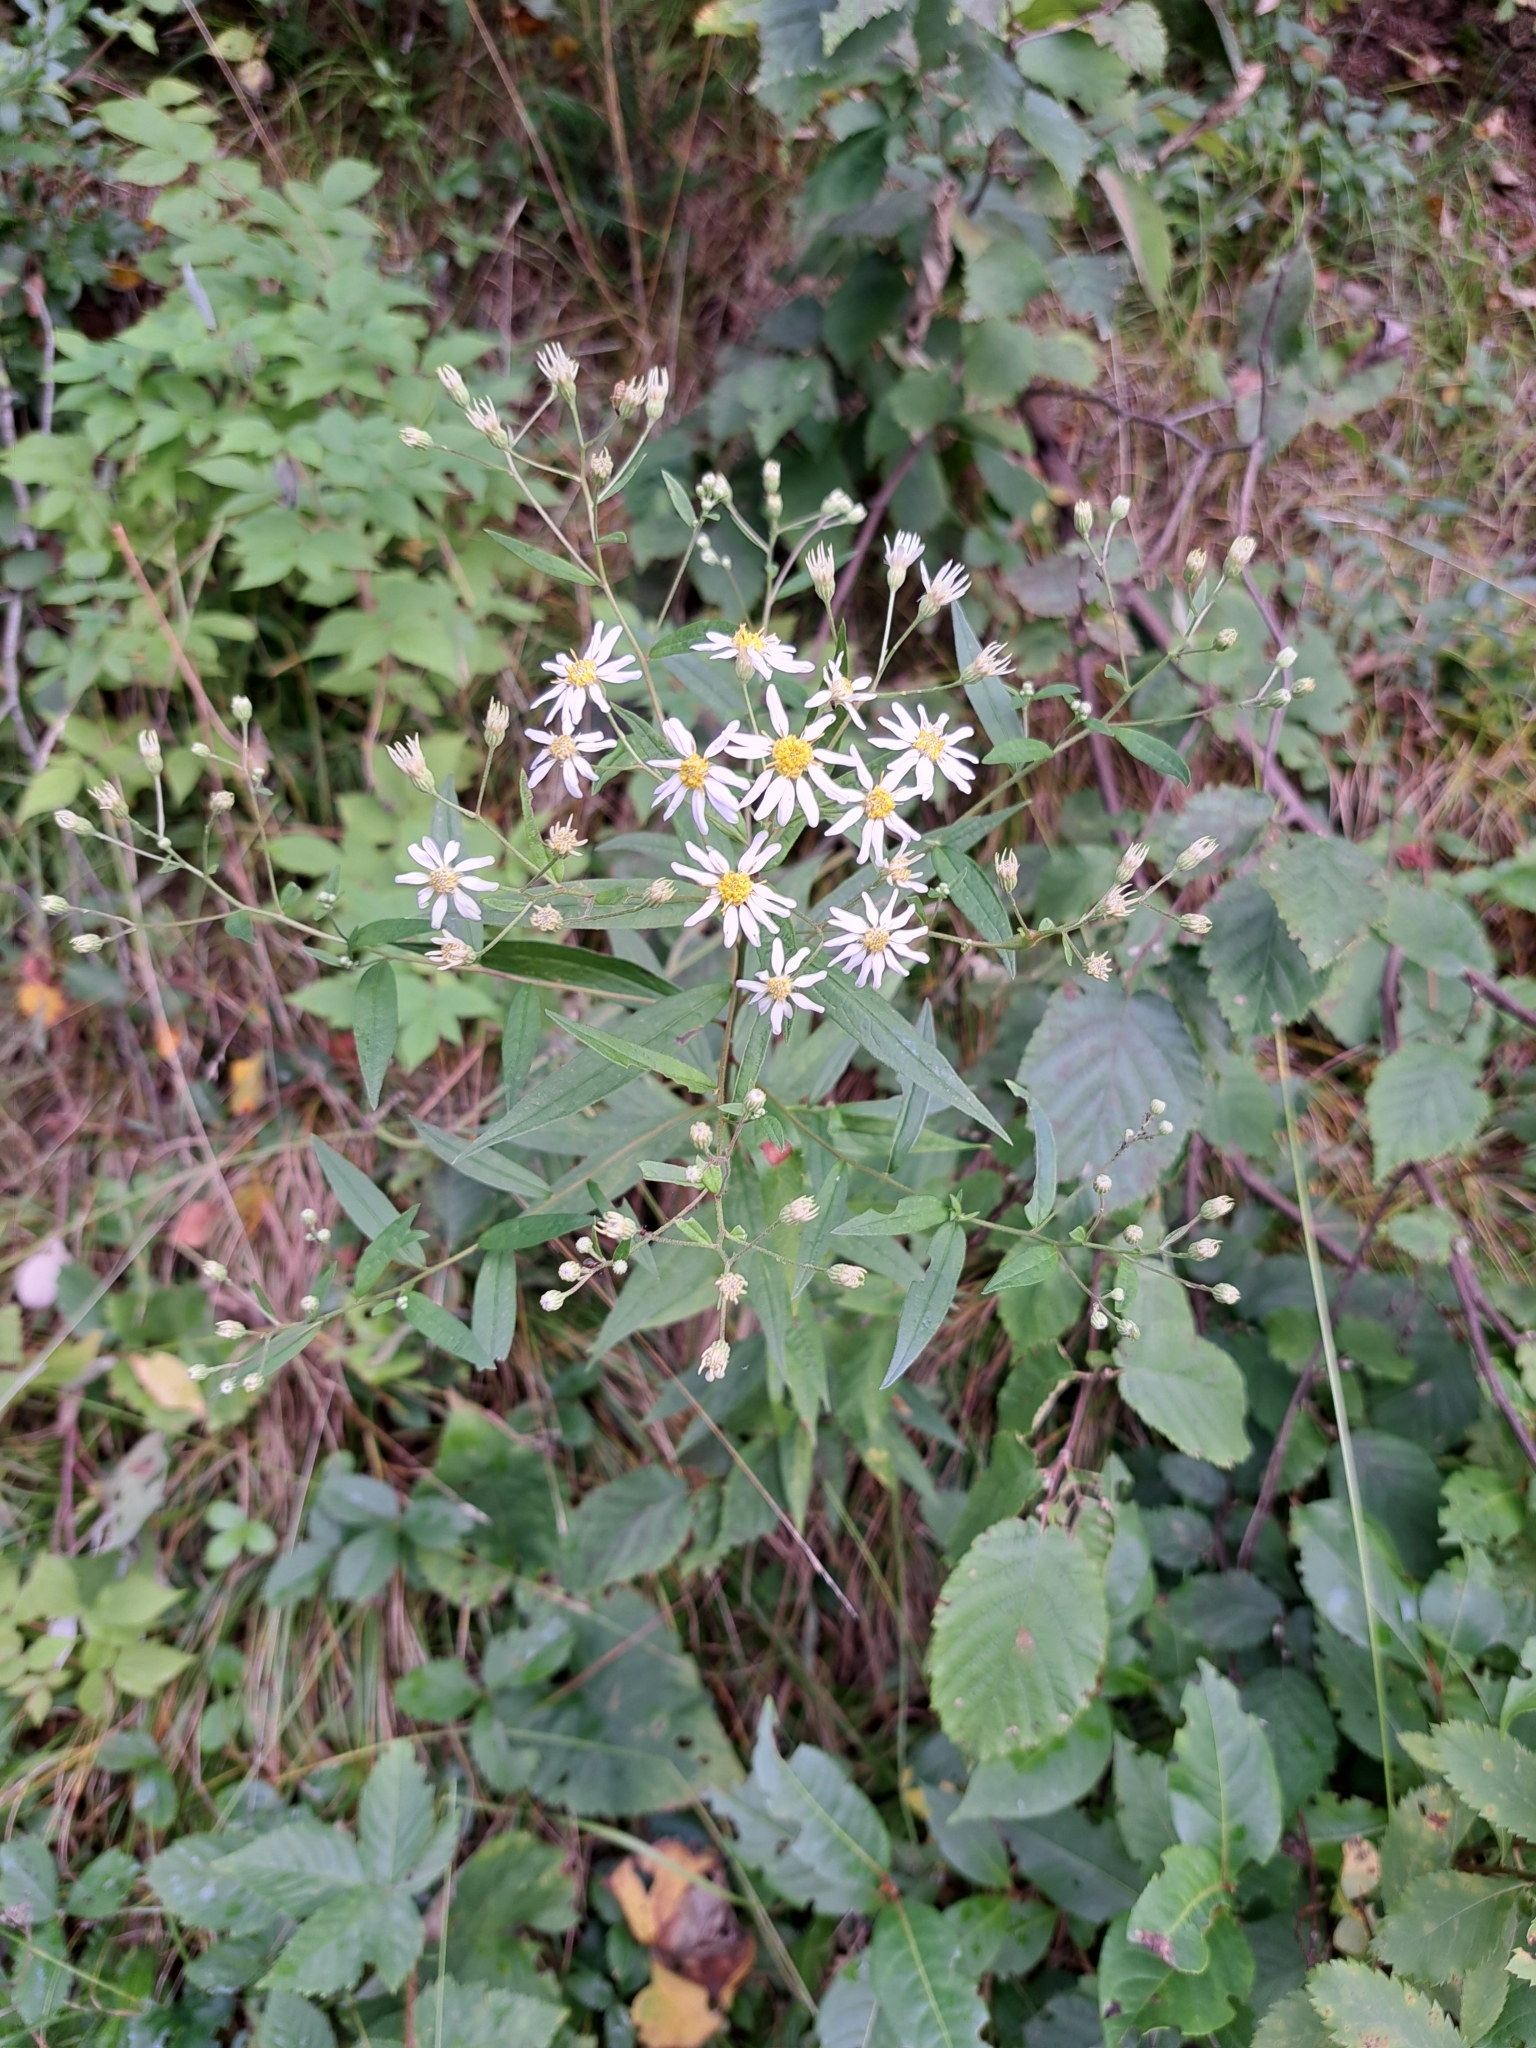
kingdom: Plantae
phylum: Tracheophyta
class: Magnoliopsida
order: Asterales
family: Asteraceae
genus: Doellingeria
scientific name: Doellingeria umbellata
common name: Flat-top white aster
